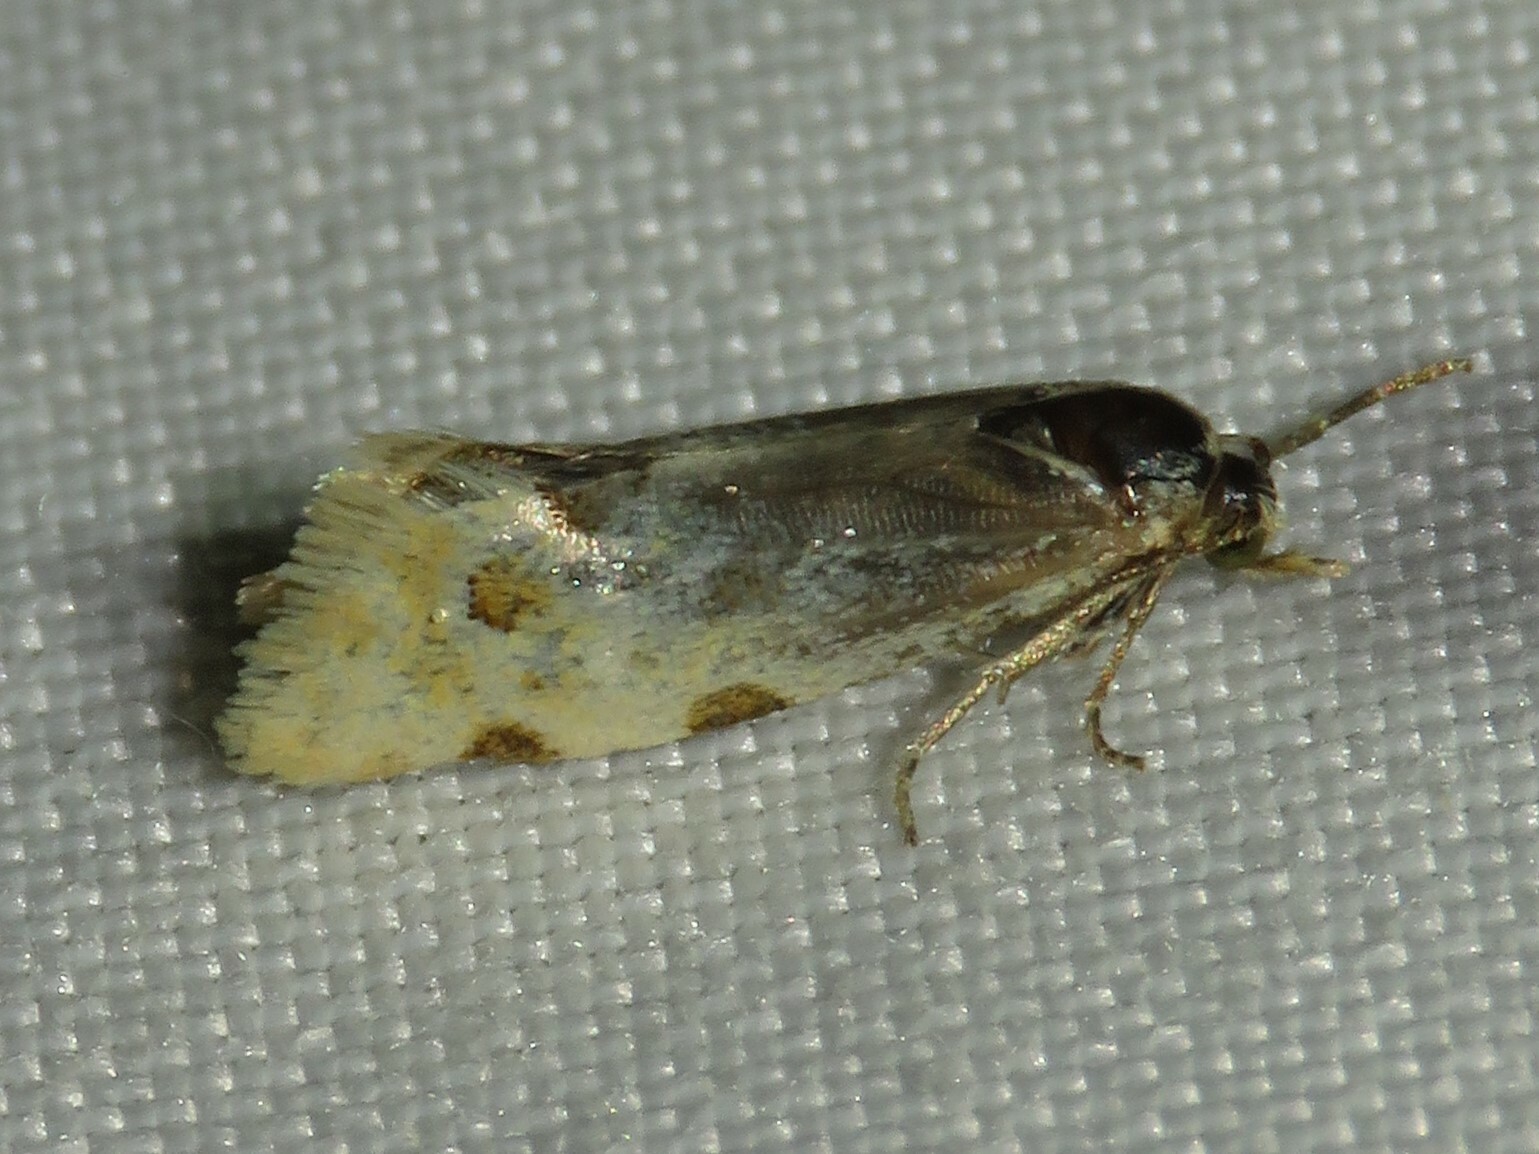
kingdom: Animalia
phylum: Arthropoda
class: Insecta
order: Lepidoptera
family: Tortricidae
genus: Aethes
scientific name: Aethes smeathmanniana
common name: Yarrow conch
